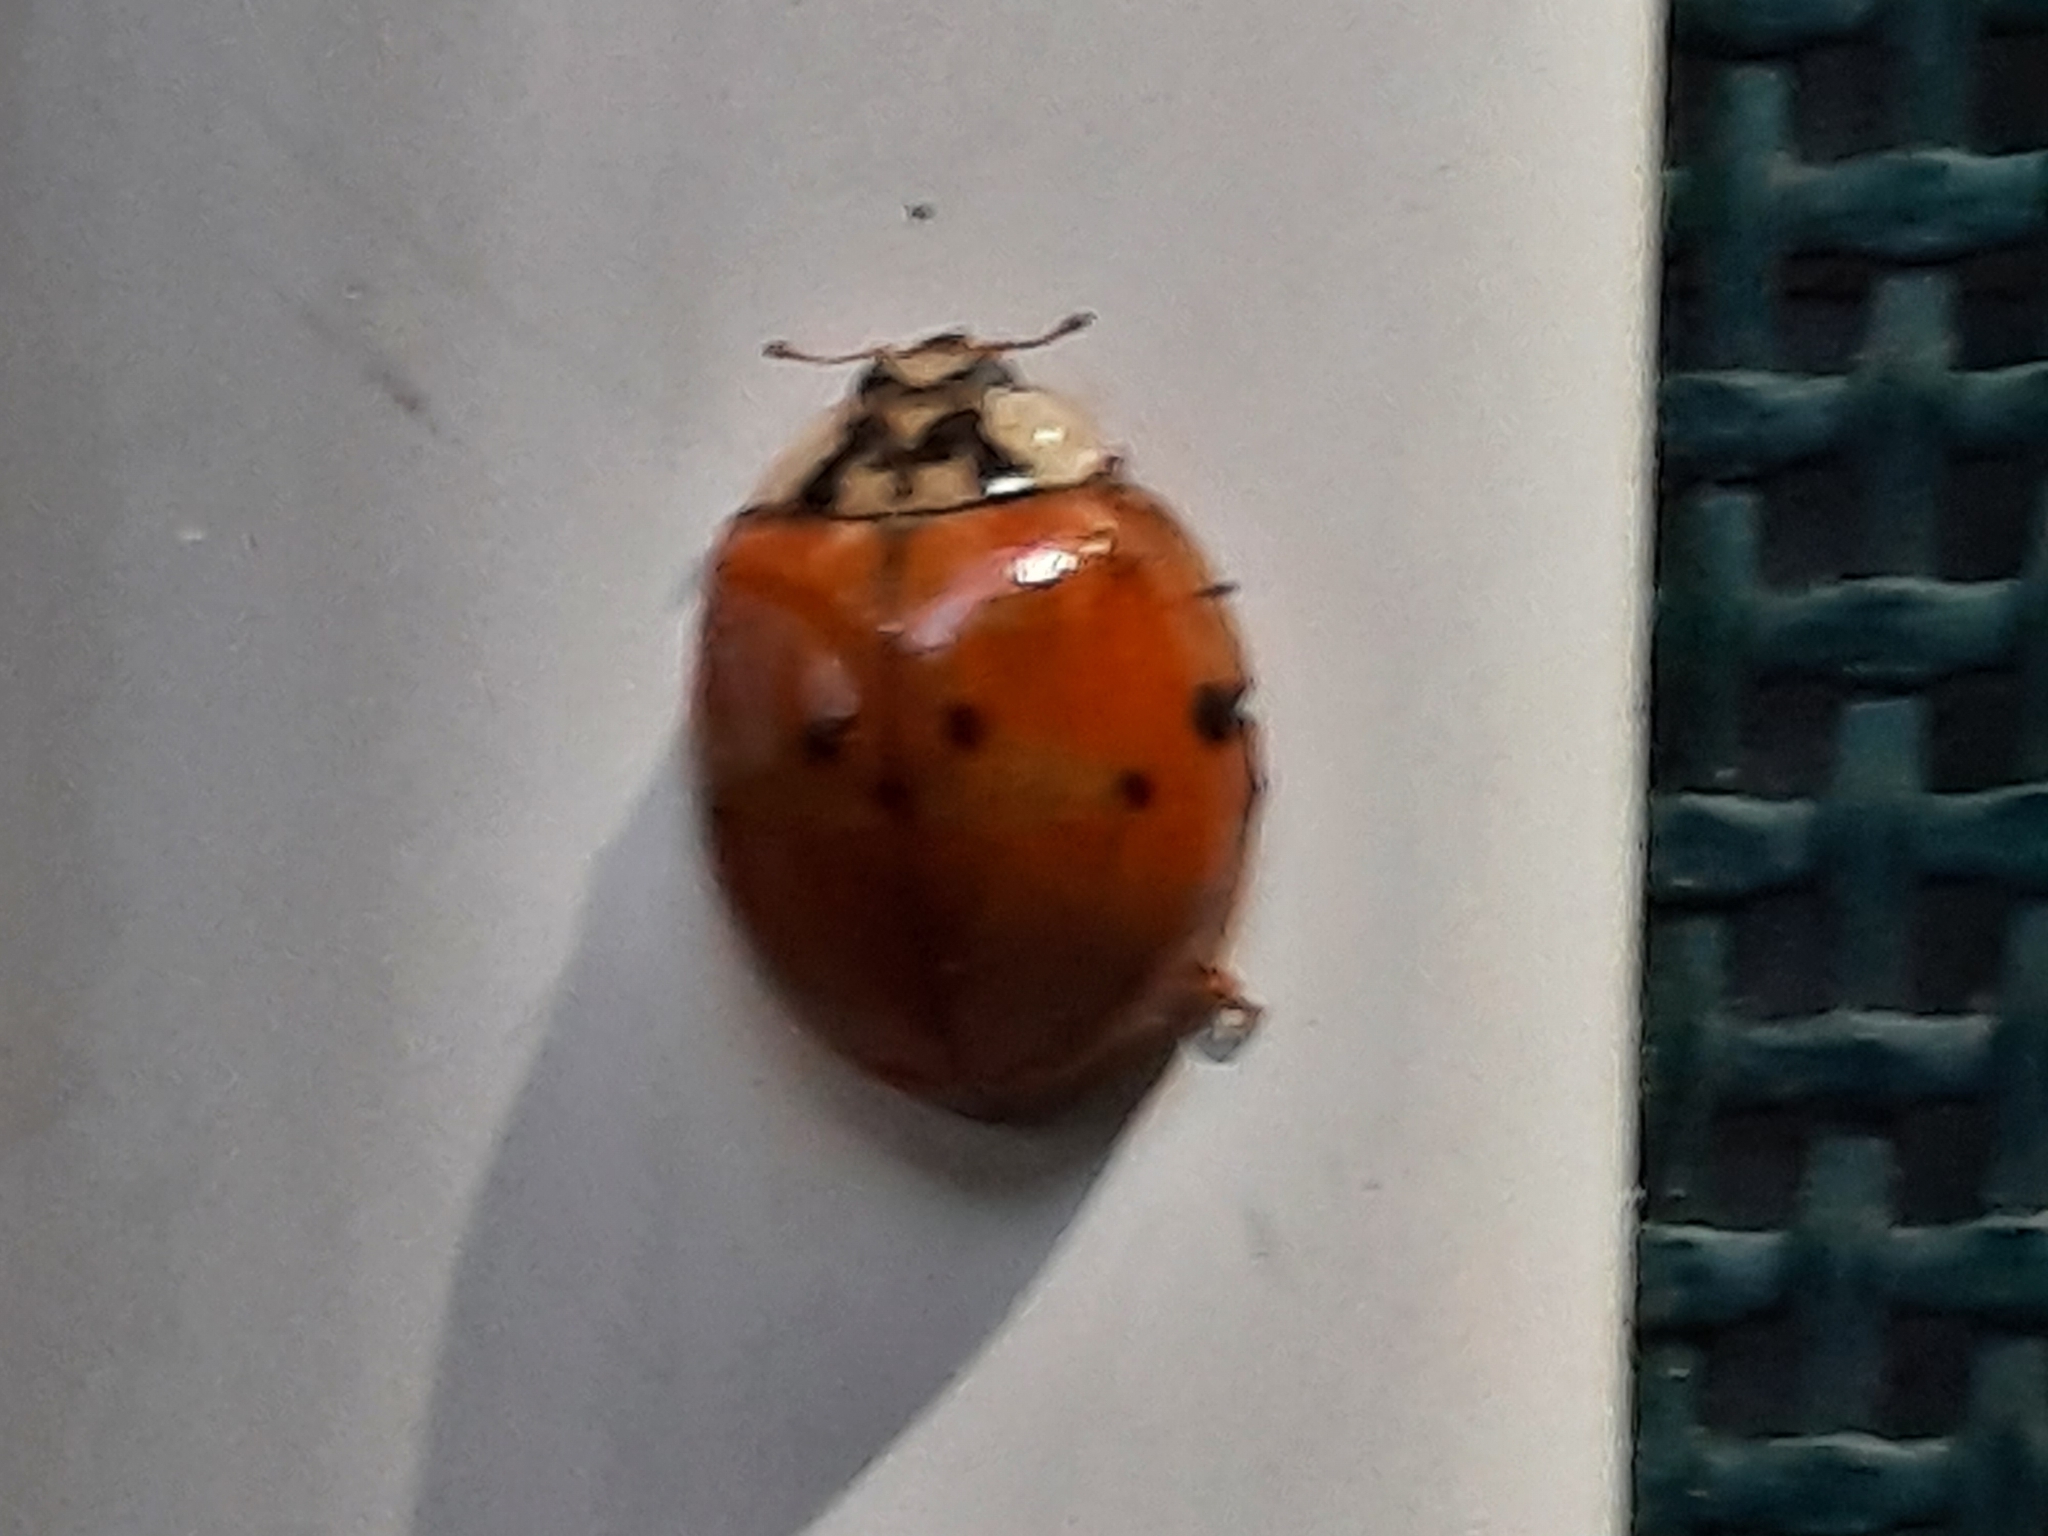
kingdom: Animalia
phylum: Arthropoda
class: Insecta
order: Coleoptera
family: Coccinellidae
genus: Harmonia
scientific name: Harmonia axyridis
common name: Harlequin ladybird
